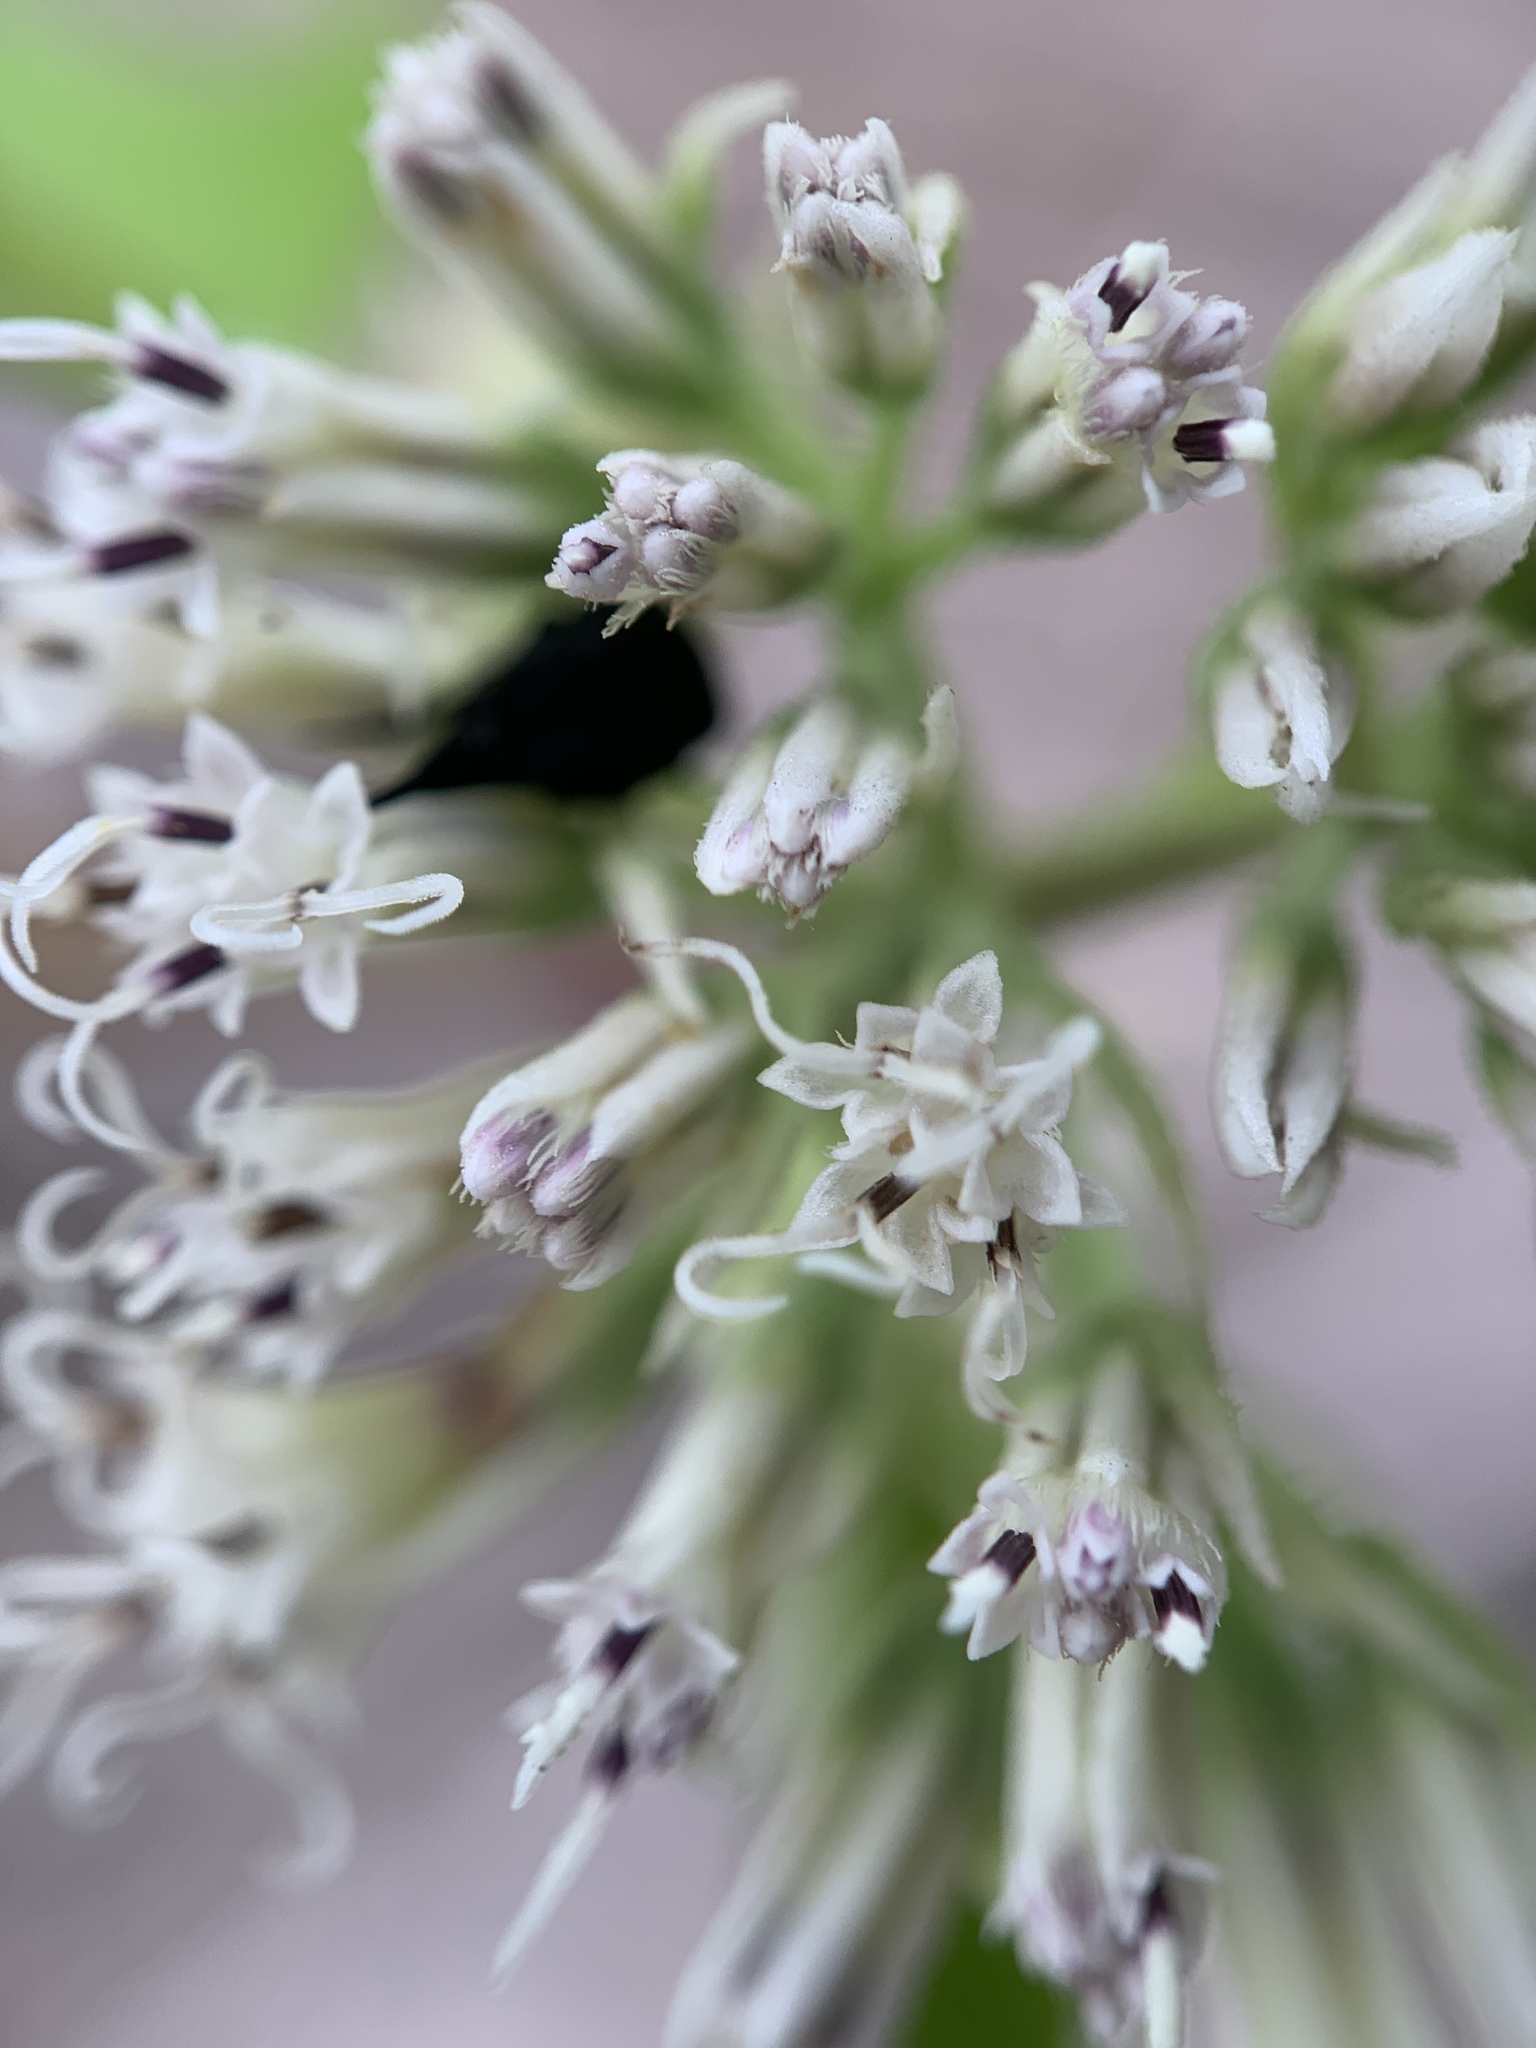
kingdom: Plantae
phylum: Tracheophyta
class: Magnoliopsida
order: Asterales
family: Asteraceae
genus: Mikania
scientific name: Mikania scandens
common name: Climbing hempvine
